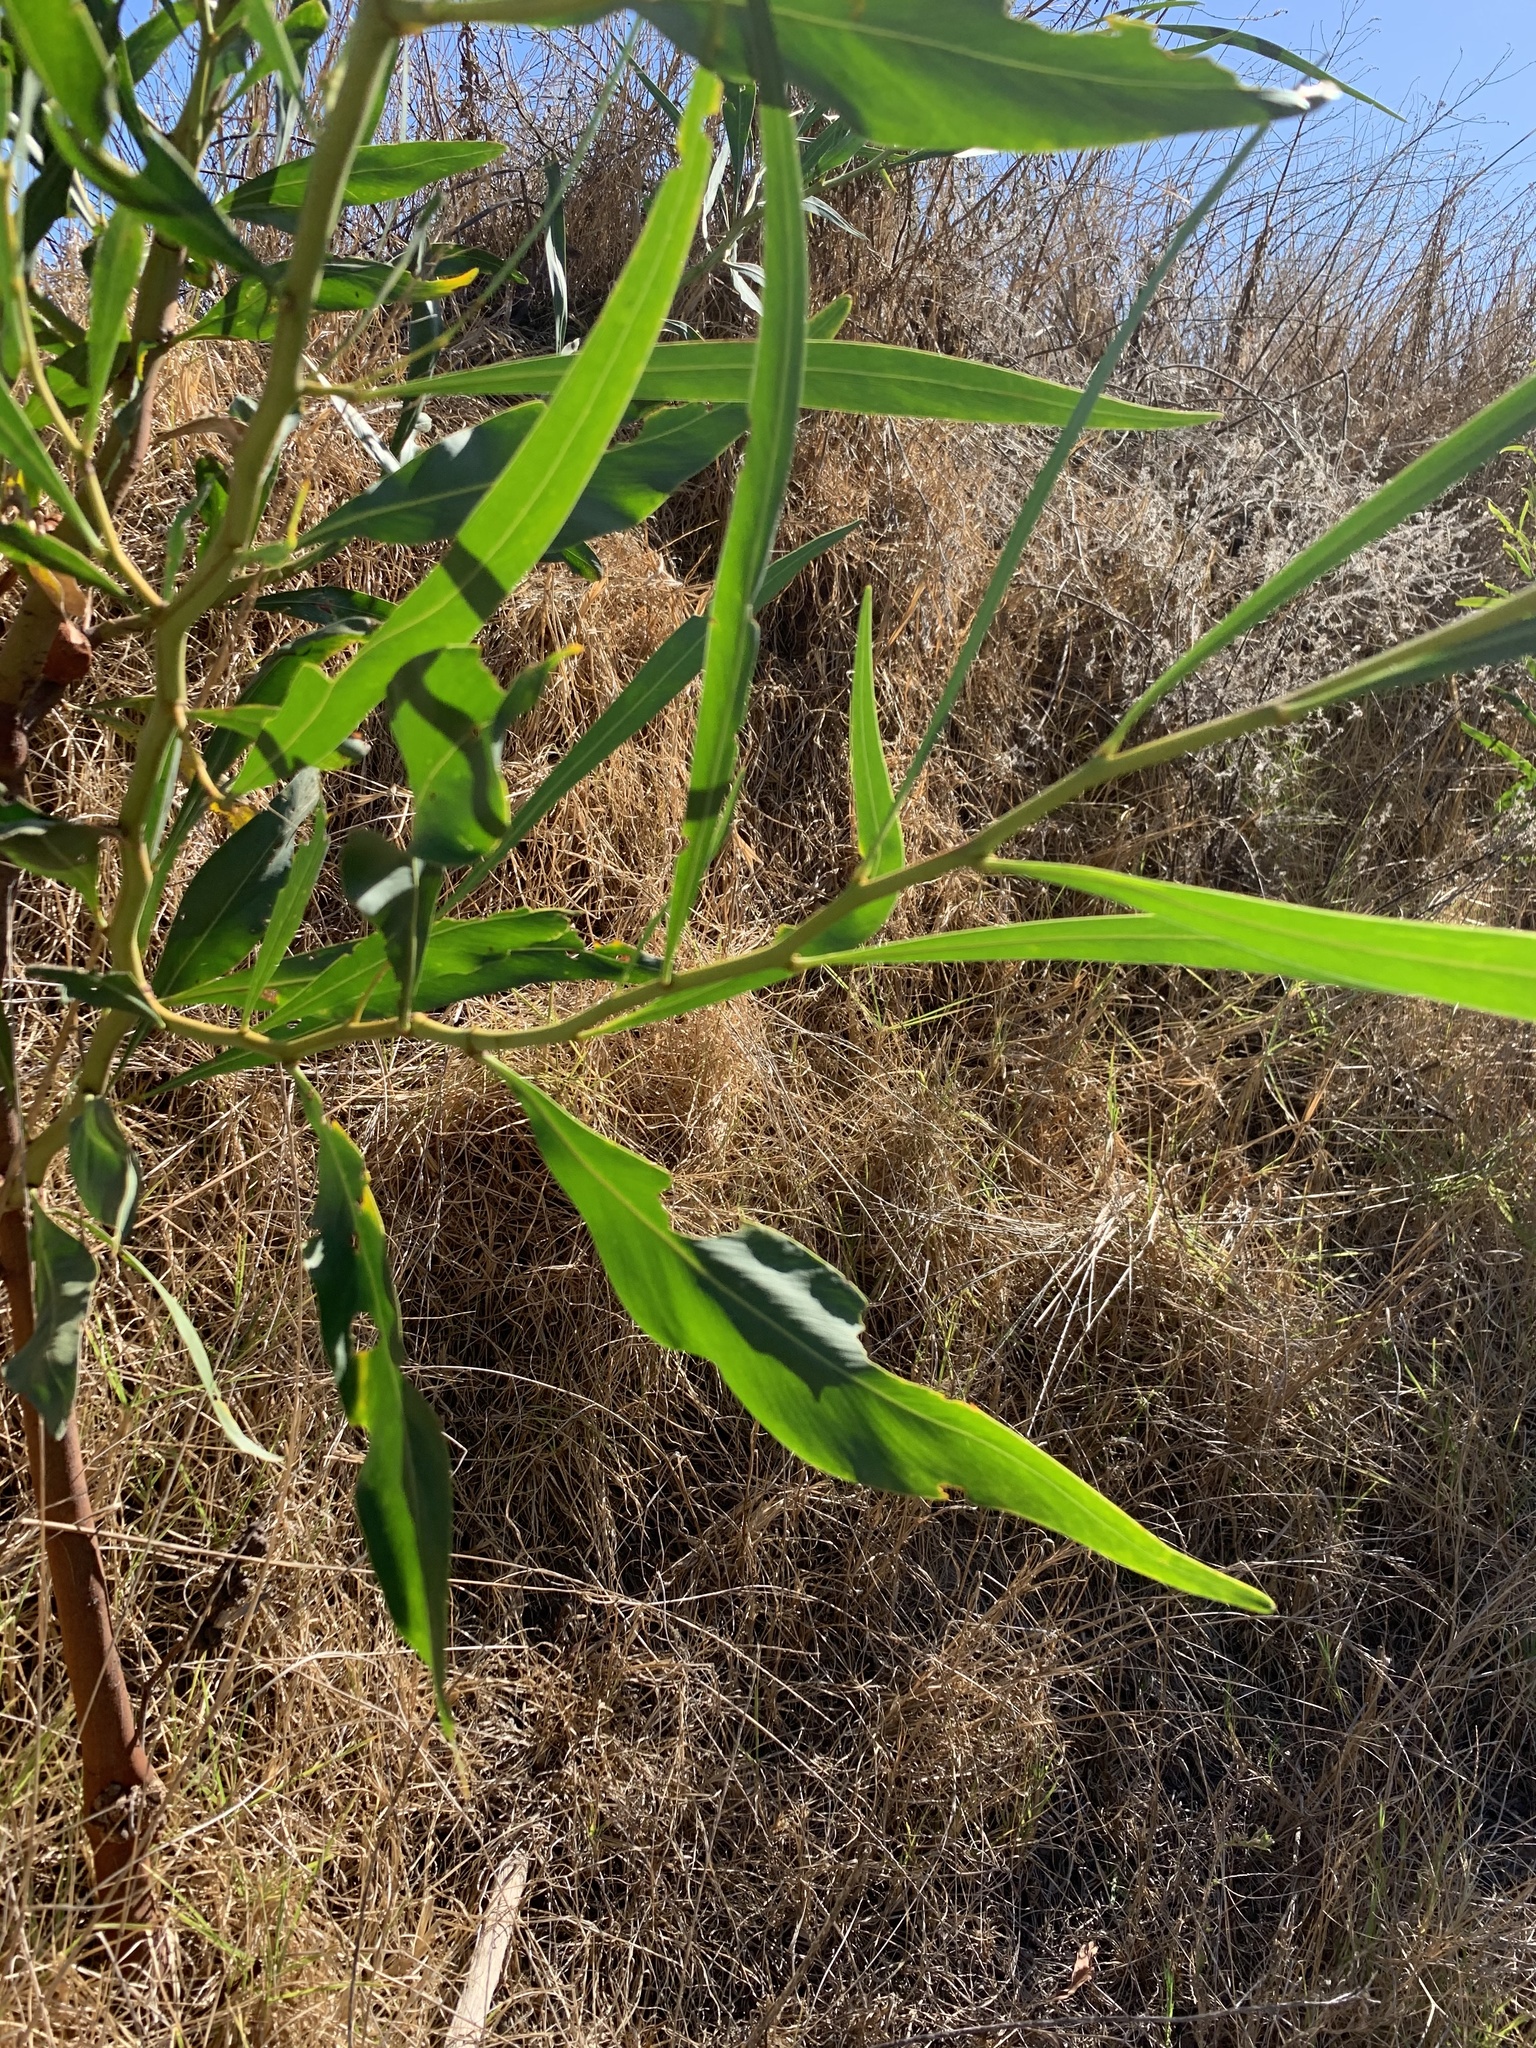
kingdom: Plantae
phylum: Tracheophyta
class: Magnoliopsida
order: Fabales
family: Fabaceae
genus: Acacia
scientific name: Acacia saligna
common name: Orange wattle
